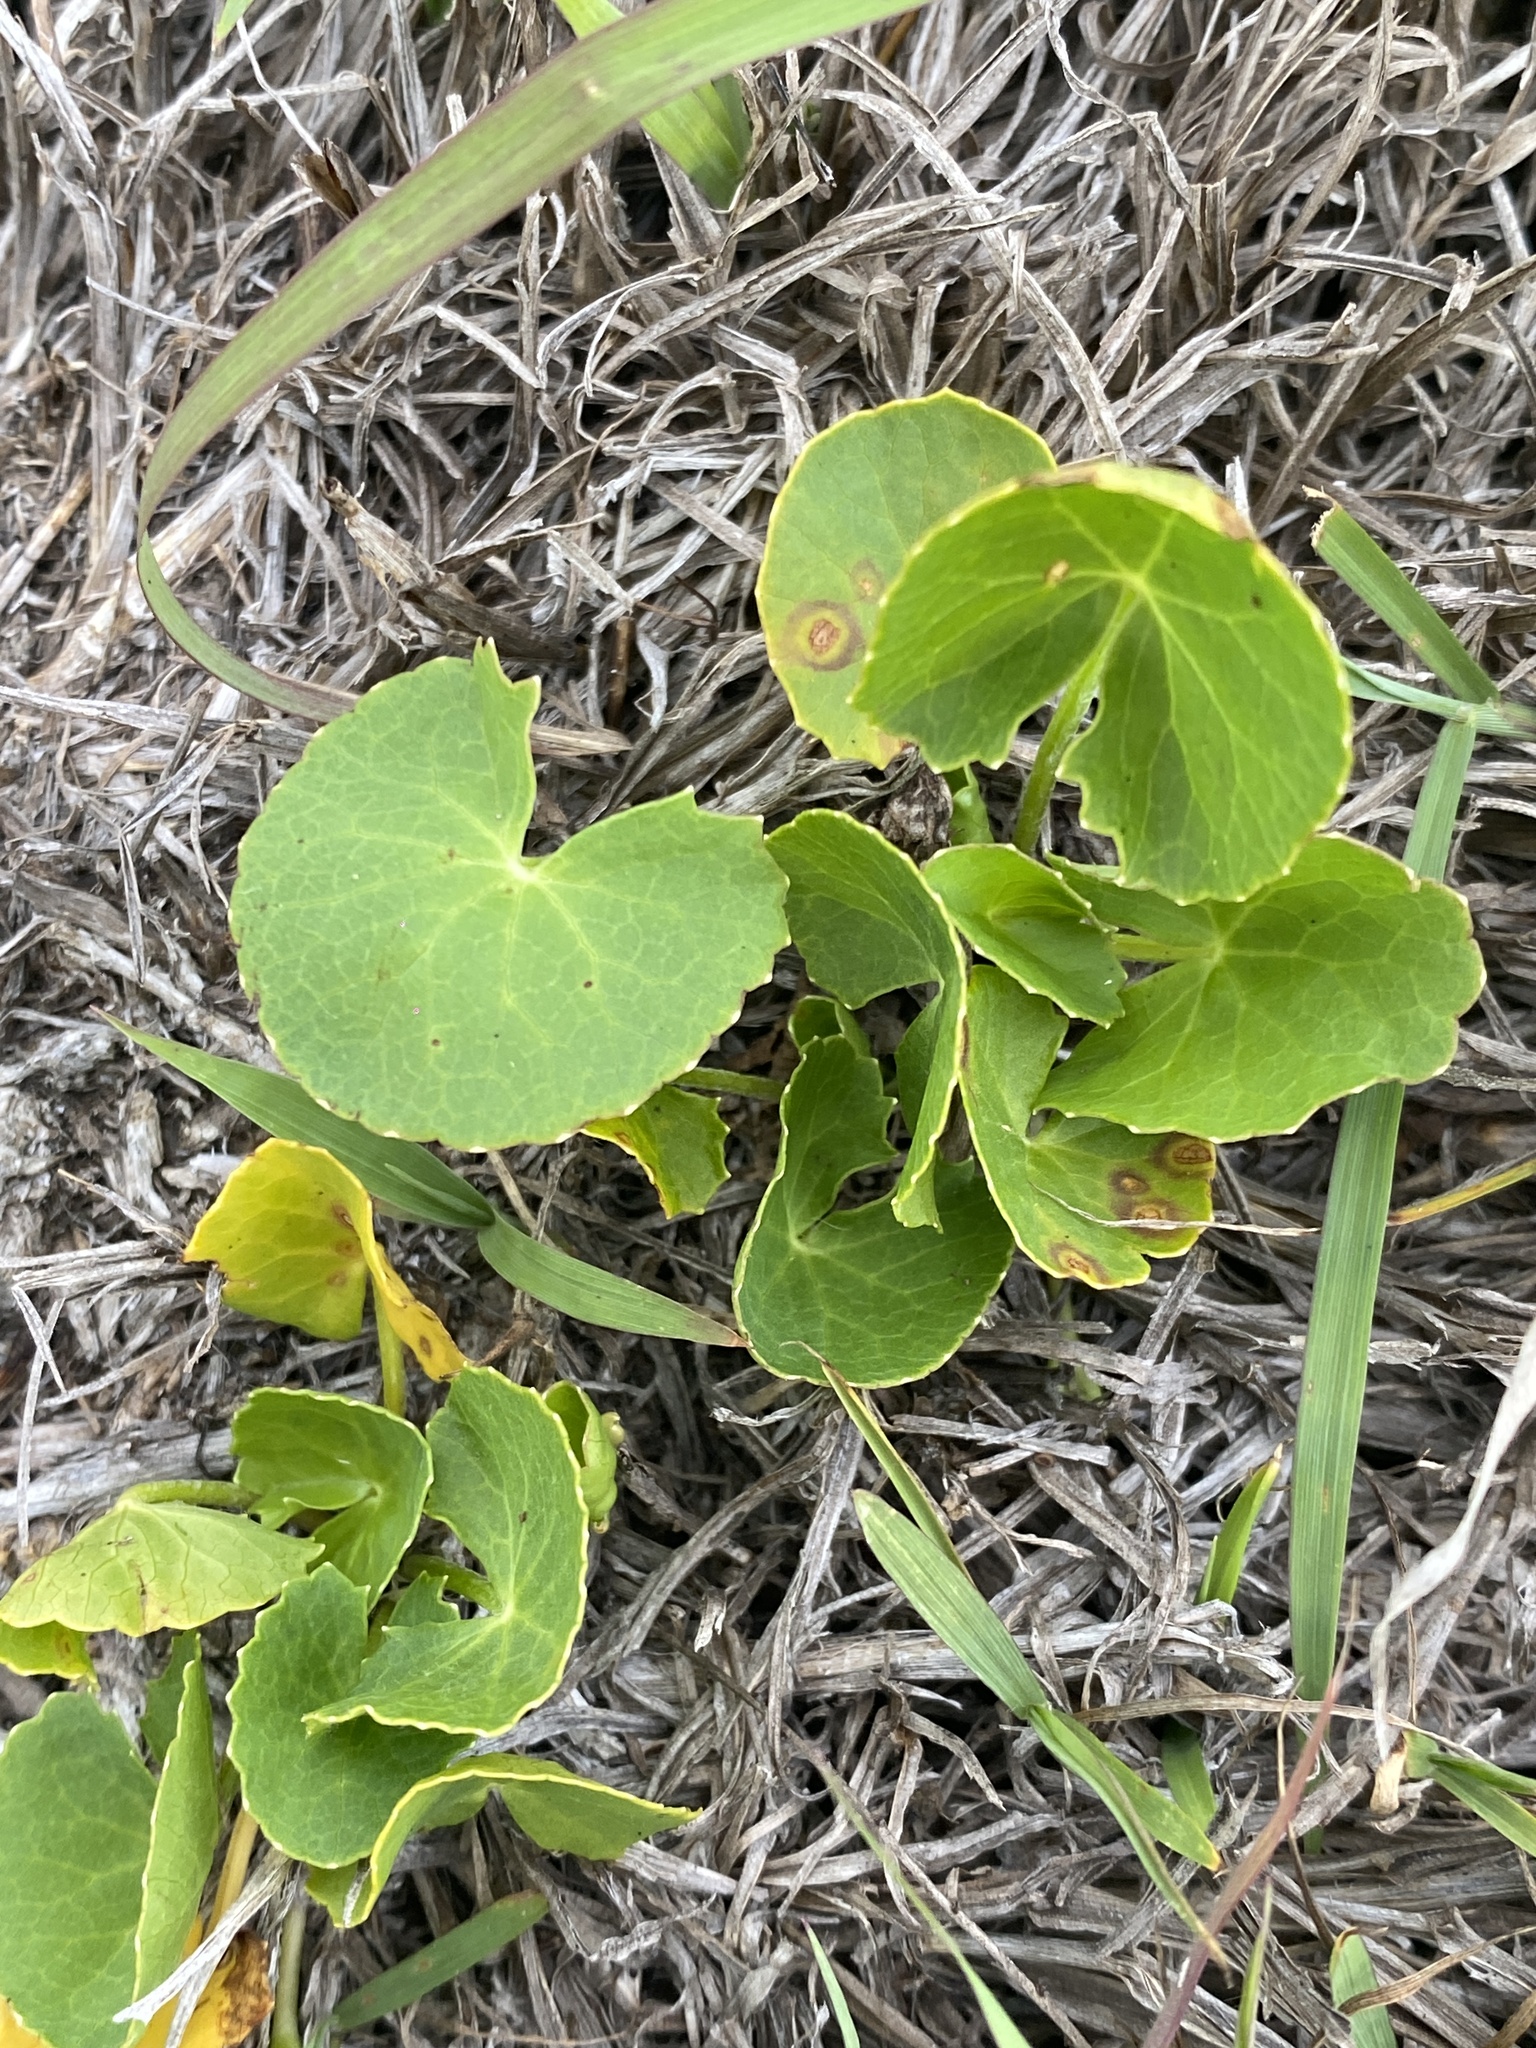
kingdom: Plantae
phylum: Tracheophyta
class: Magnoliopsida
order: Apiales
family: Apiaceae
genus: Centella
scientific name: Centella asiatica
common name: Spadeleaf
